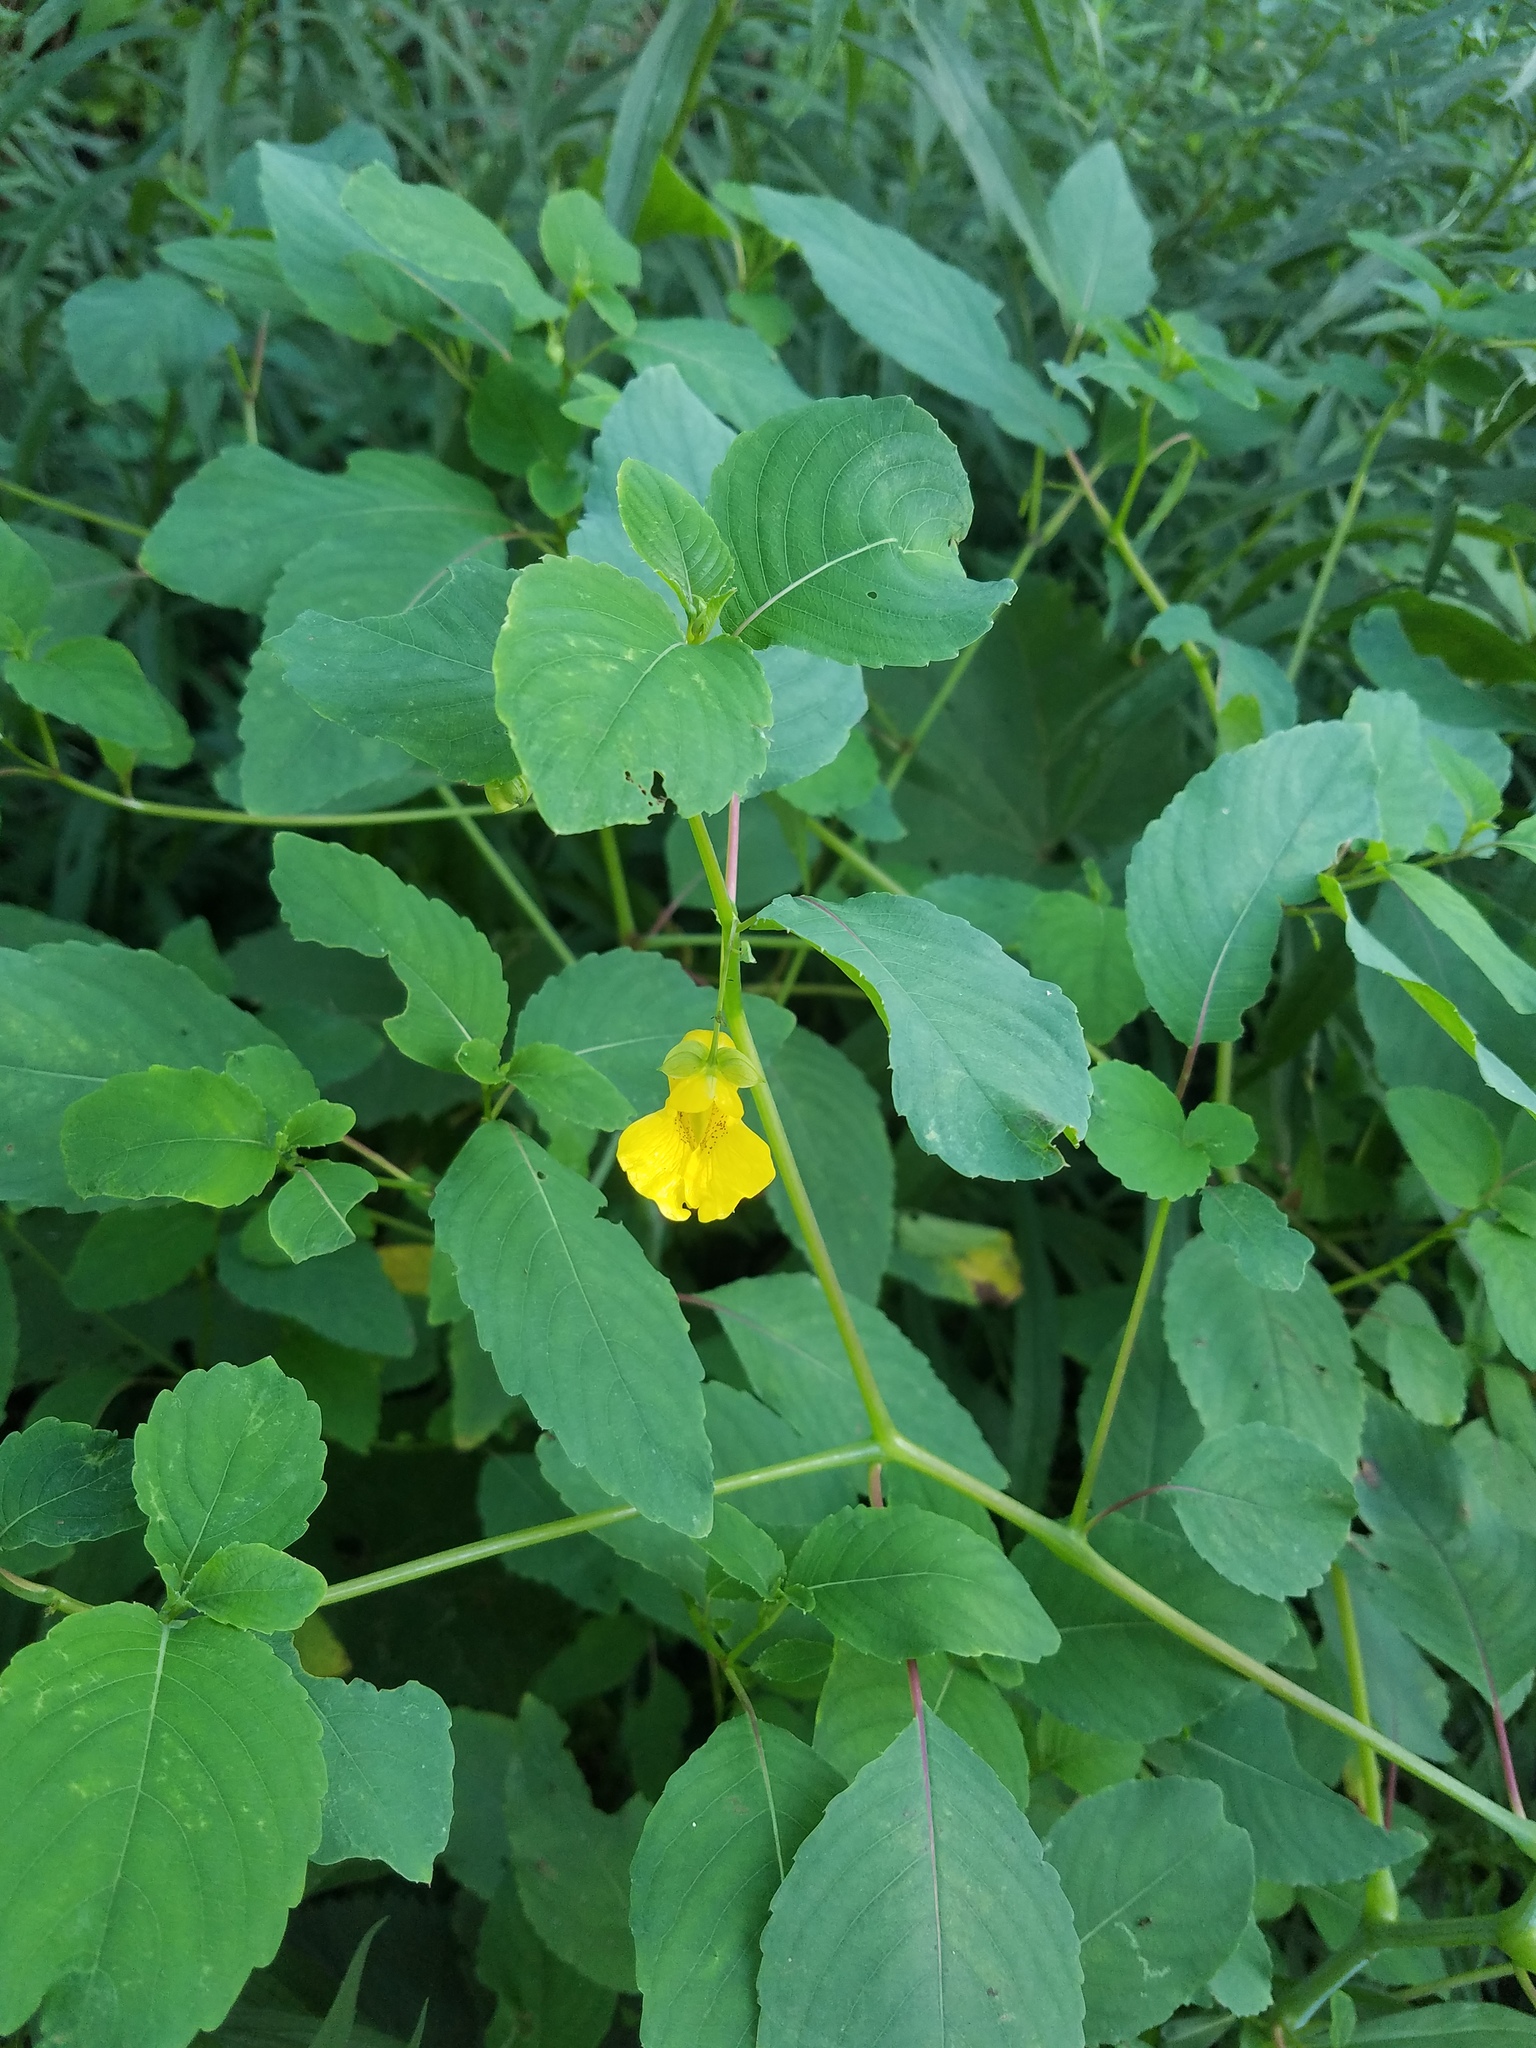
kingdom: Plantae
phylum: Tracheophyta
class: Magnoliopsida
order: Ericales
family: Balsaminaceae
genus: Impatiens
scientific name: Impatiens pallida
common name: Pale snapweed
